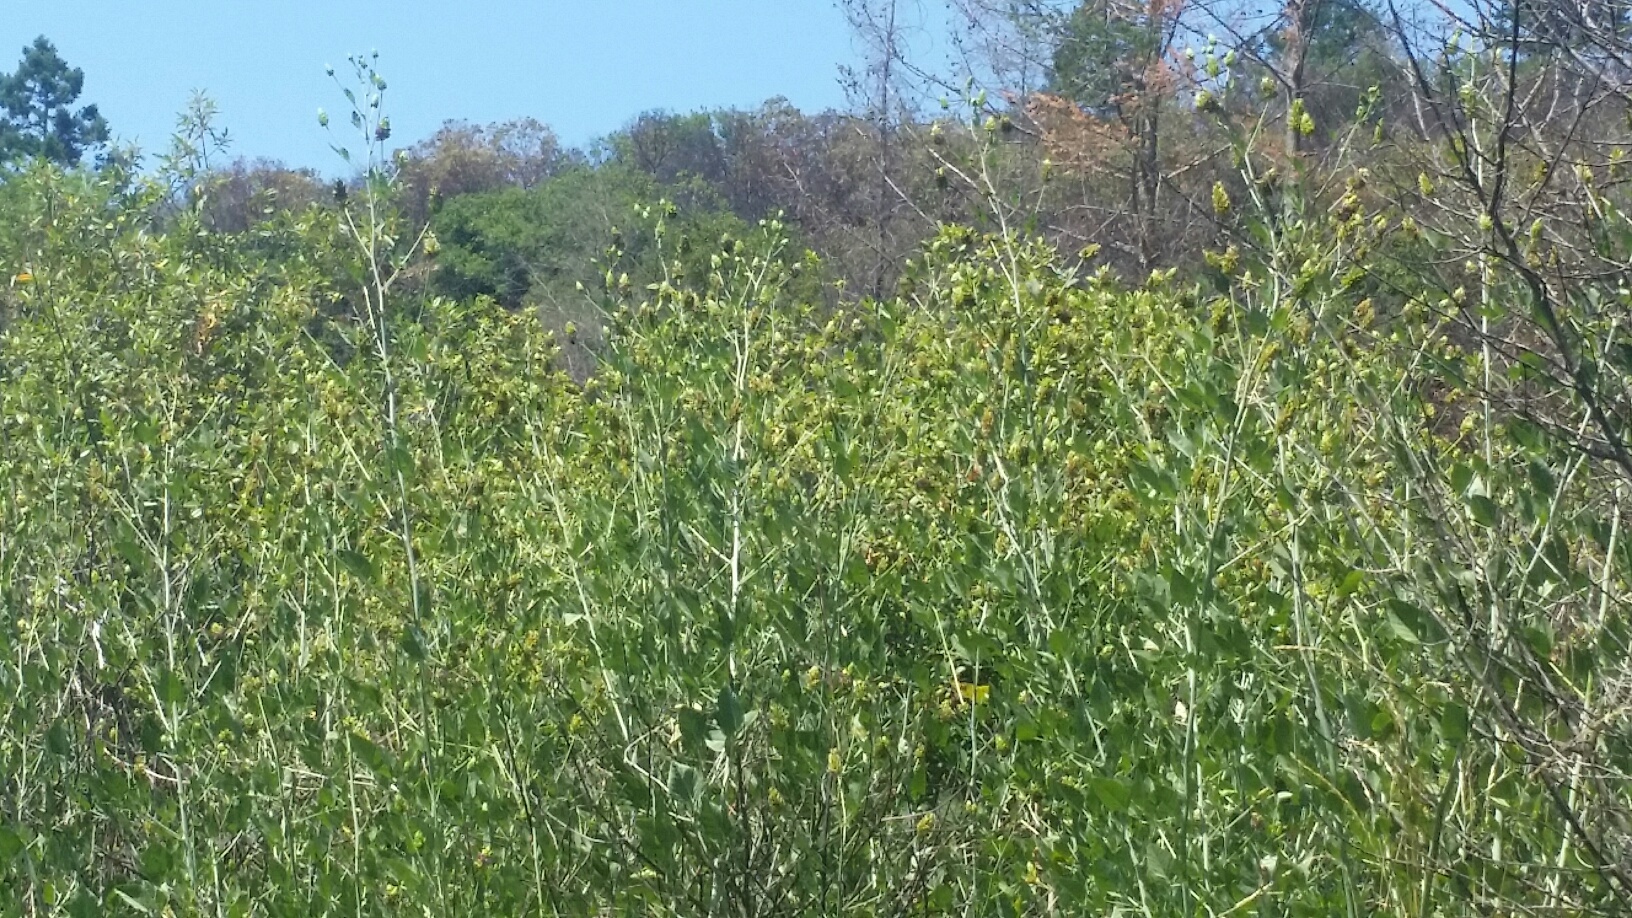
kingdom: Plantae
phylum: Tracheophyta
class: Magnoliopsida
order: Fabales
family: Fabaceae
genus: Hoita
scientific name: Hoita macrostachya
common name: Leatherroot
